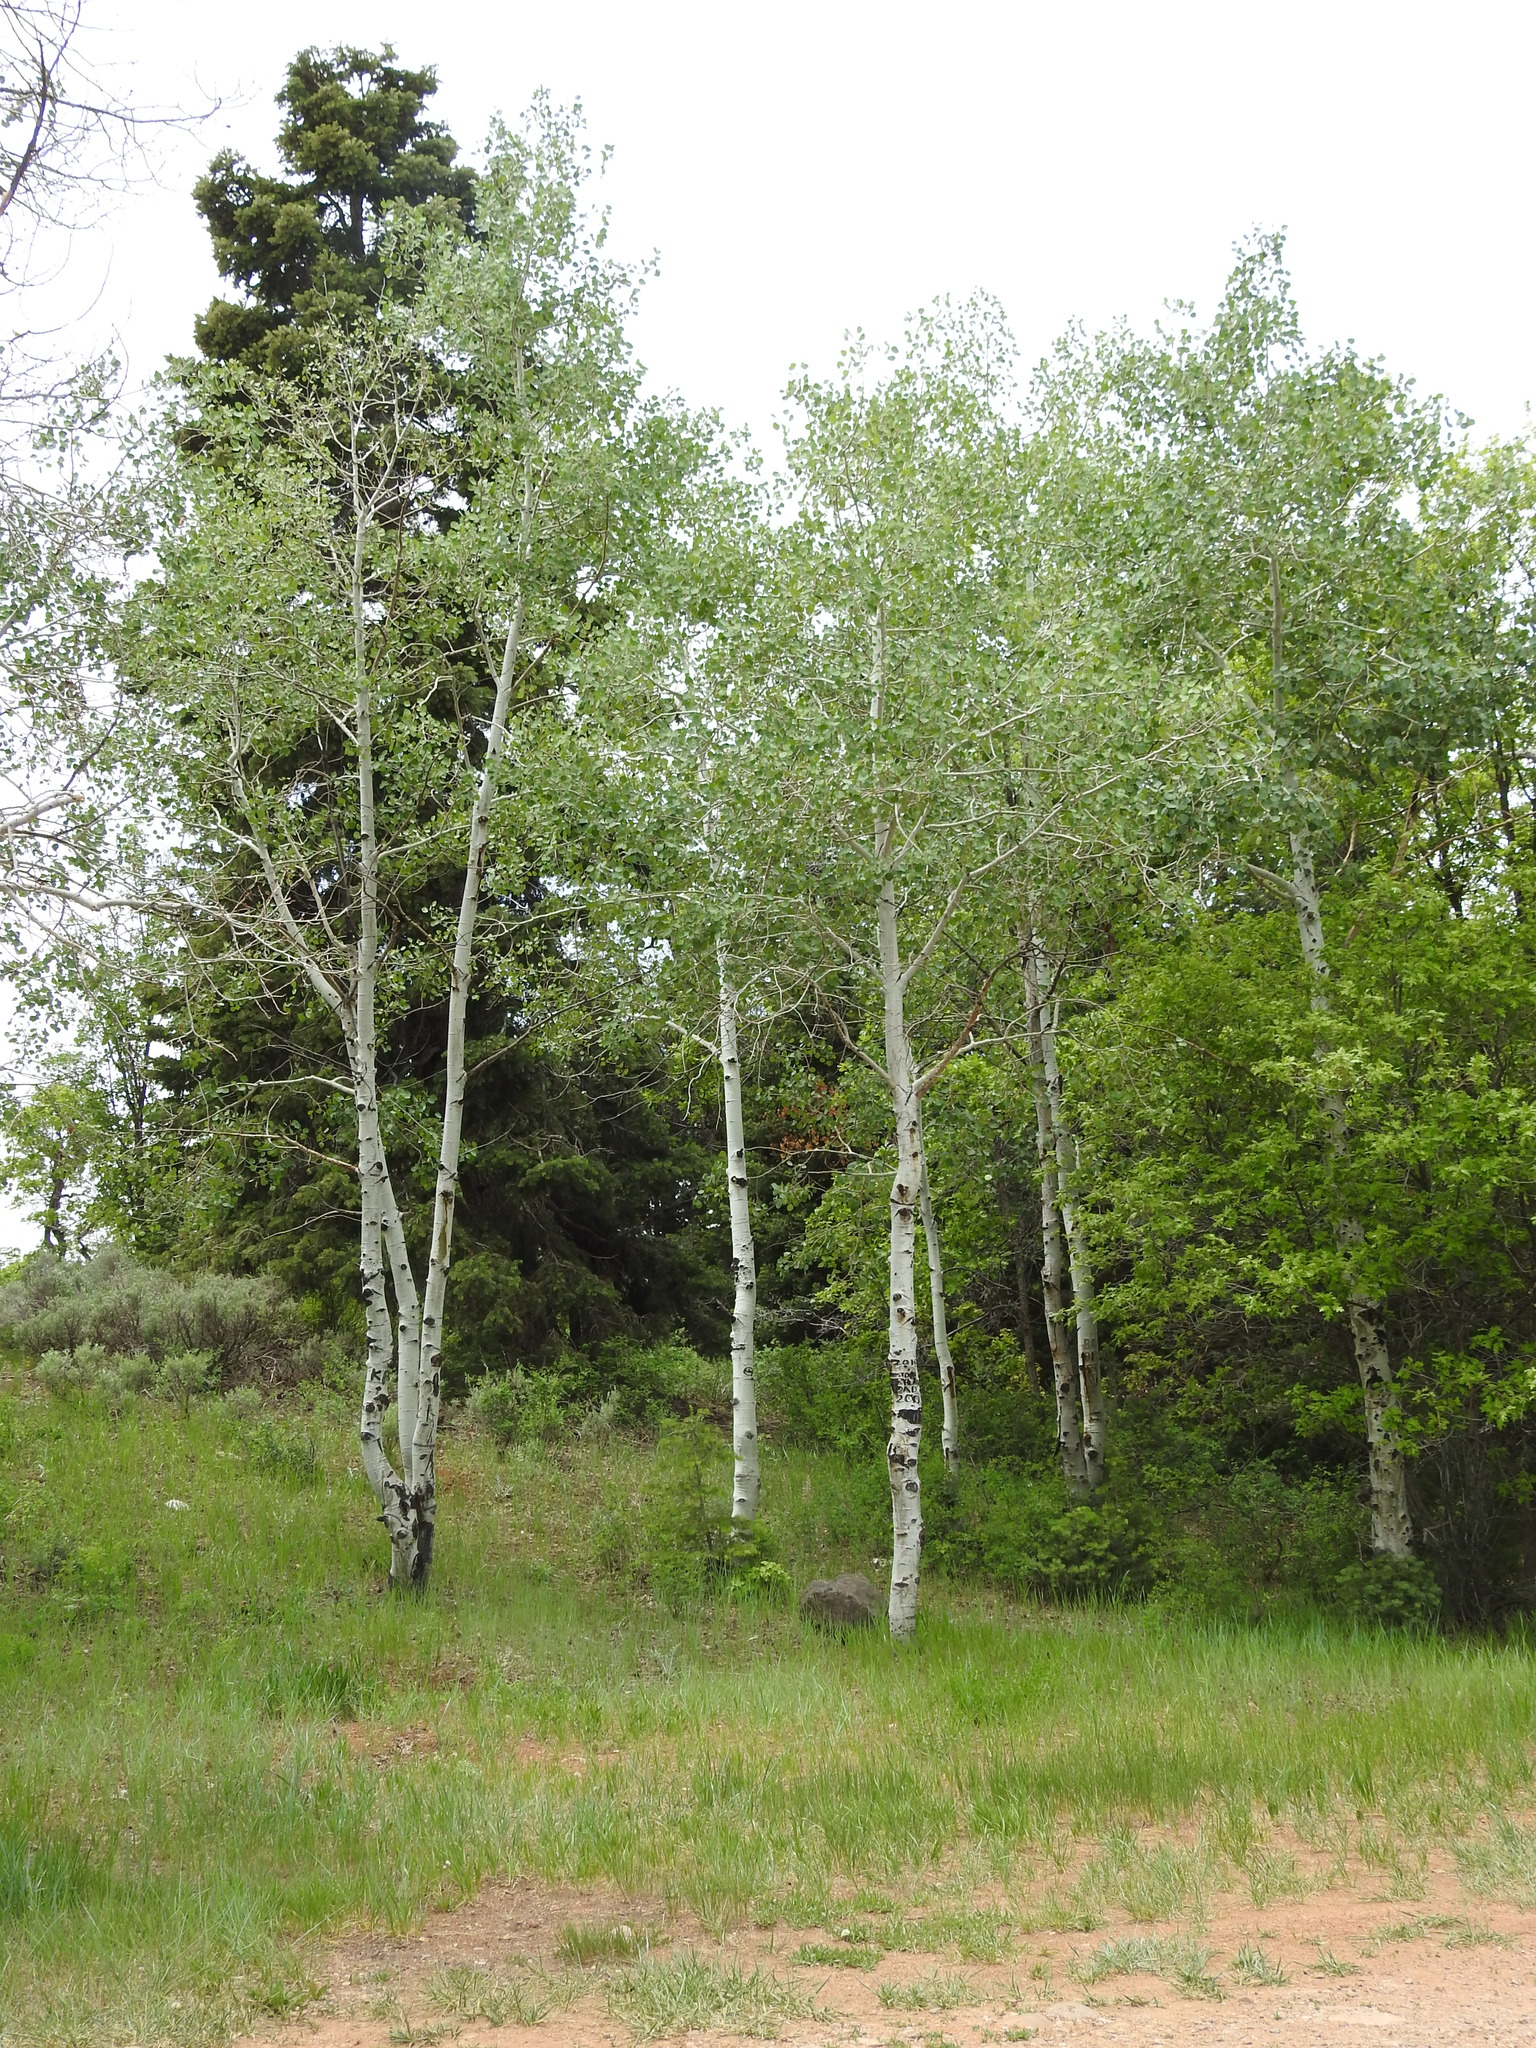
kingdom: Plantae
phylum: Tracheophyta
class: Magnoliopsida
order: Malpighiales
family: Salicaceae
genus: Populus
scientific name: Populus tremuloides
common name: Quaking aspen
